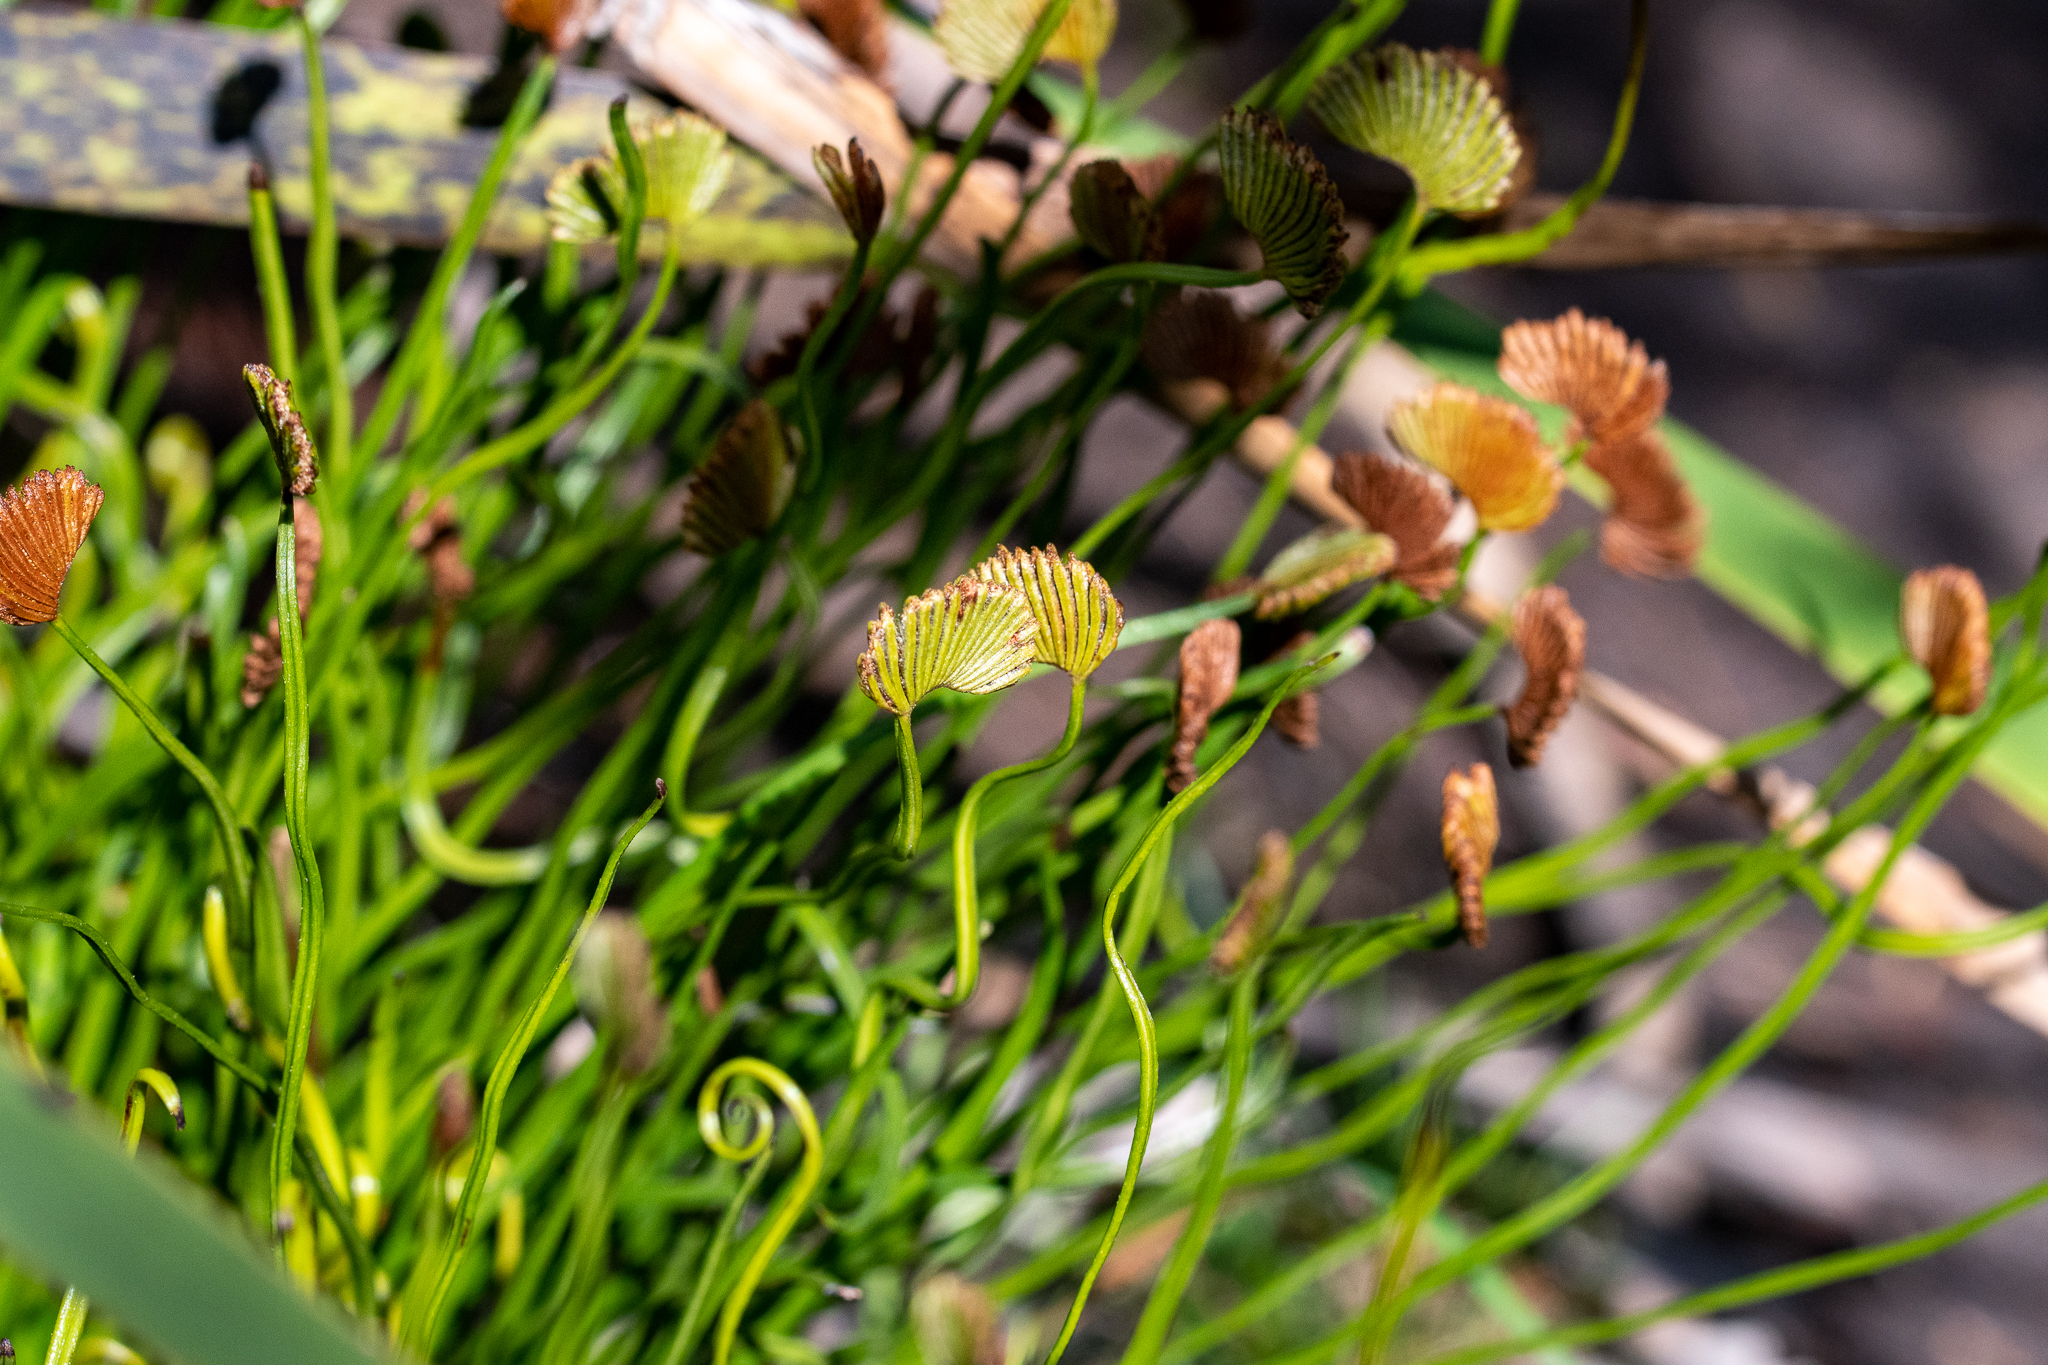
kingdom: Plantae
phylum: Tracheophyta
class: Polypodiopsida
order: Schizaeales
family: Schizaeaceae
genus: Schizaea
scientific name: Schizaea pectinata
